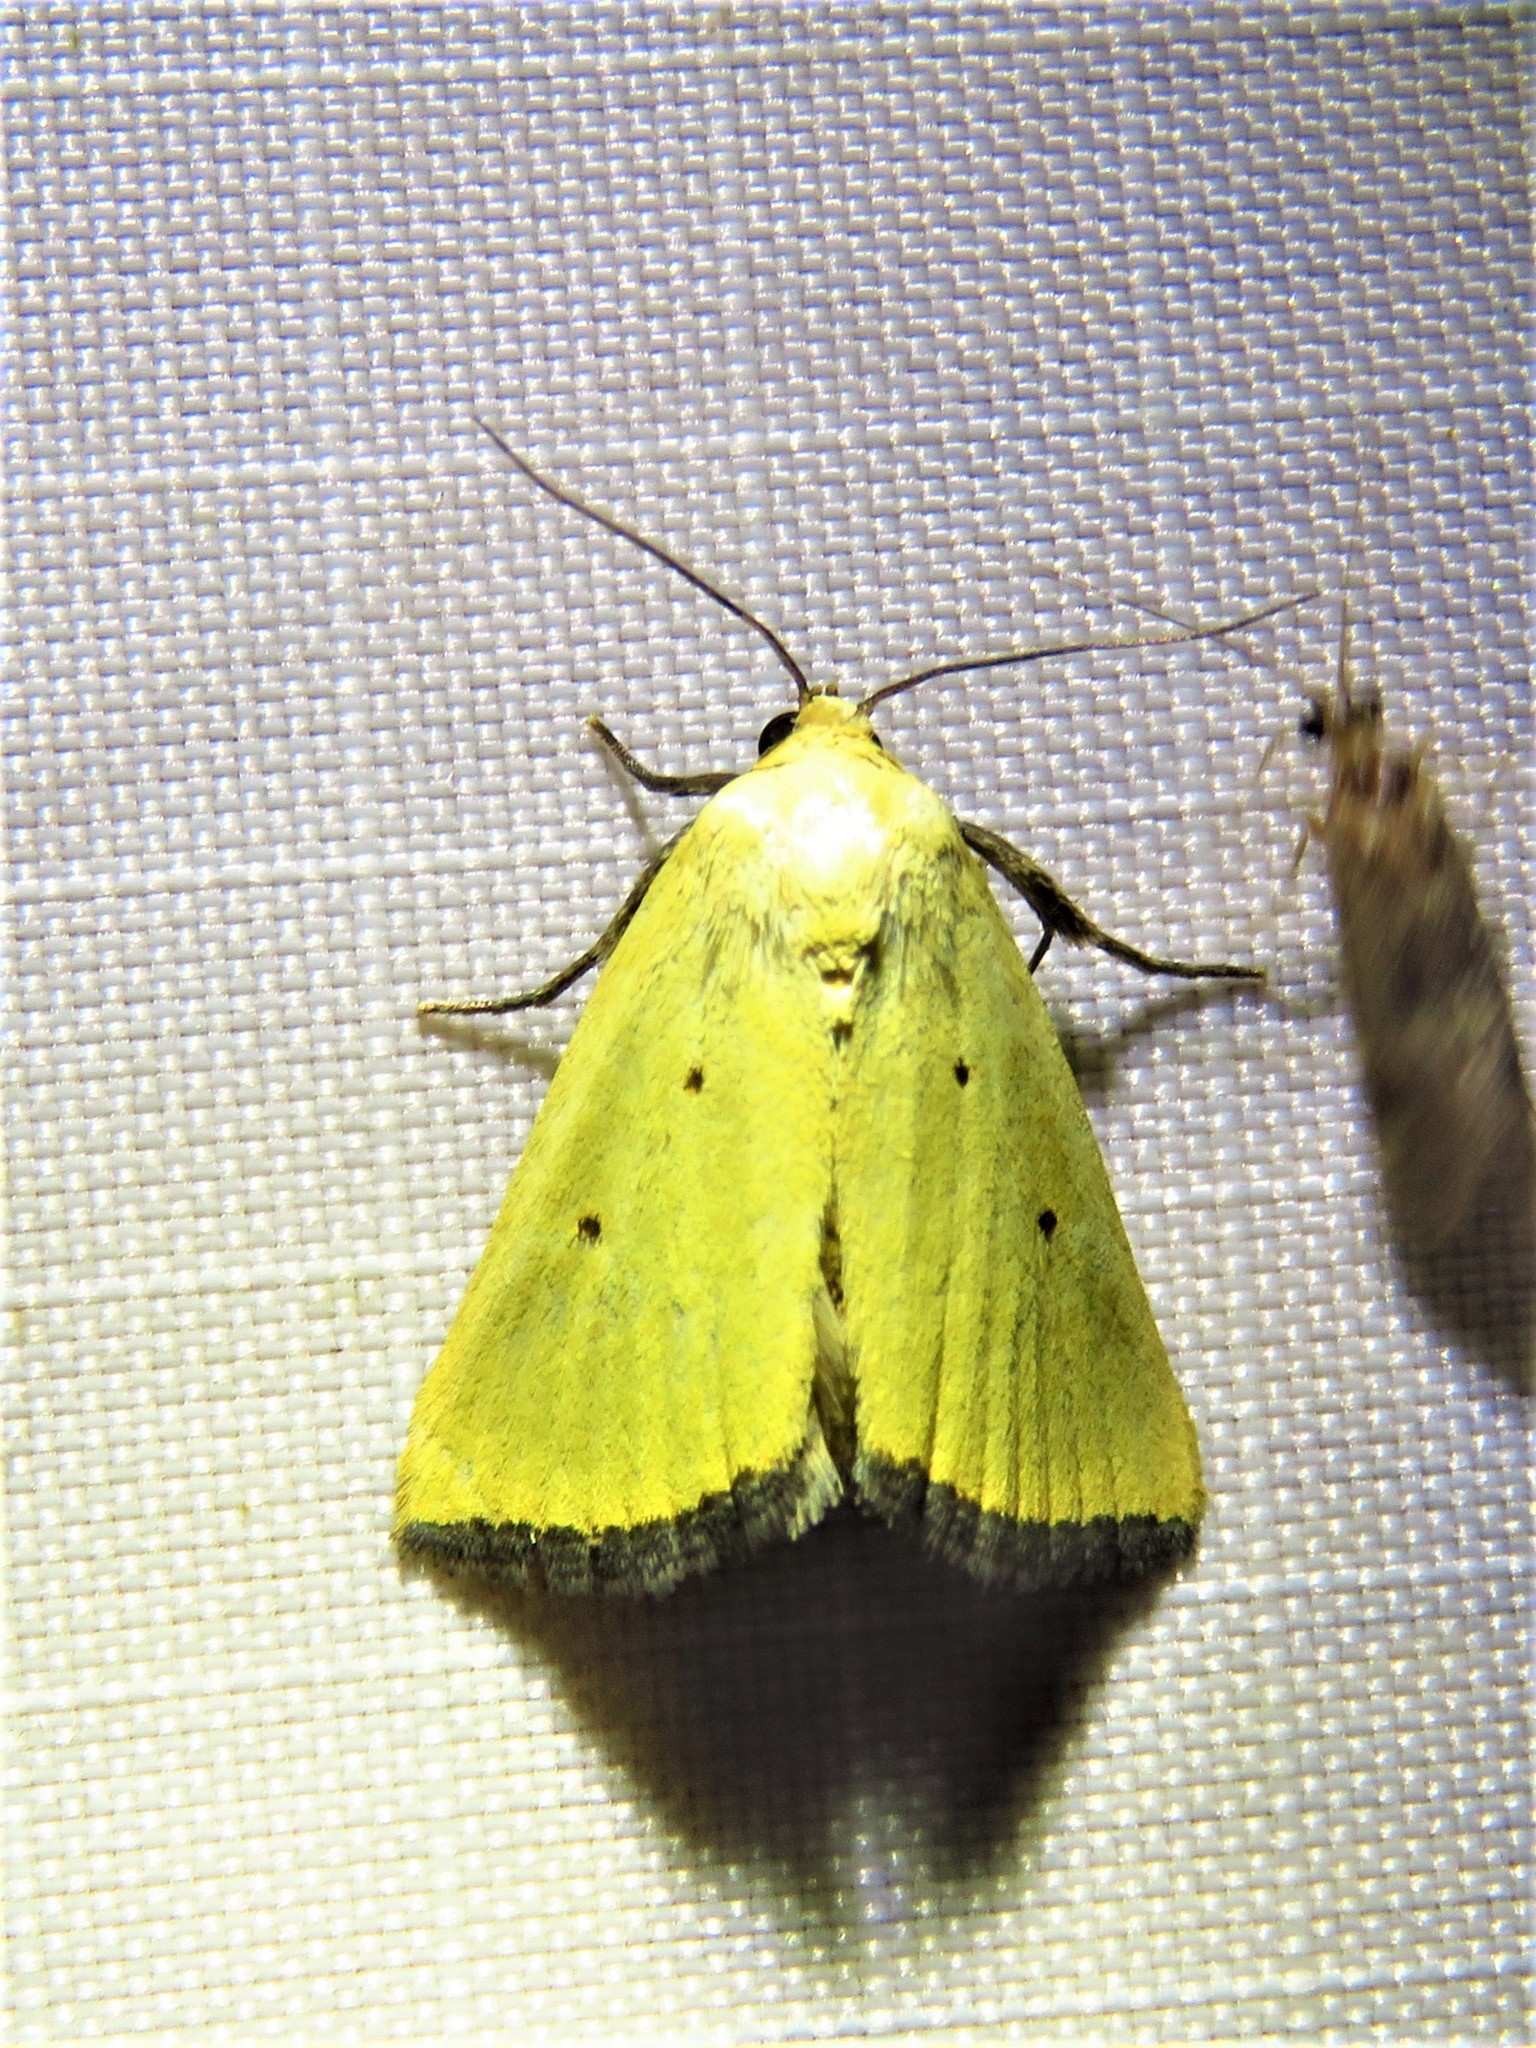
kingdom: Animalia
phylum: Arthropoda
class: Insecta
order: Lepidoptera
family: Noctuidae
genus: Marimatha
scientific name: Marimatha nigrofimbria
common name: Black-bordered lemon moth
